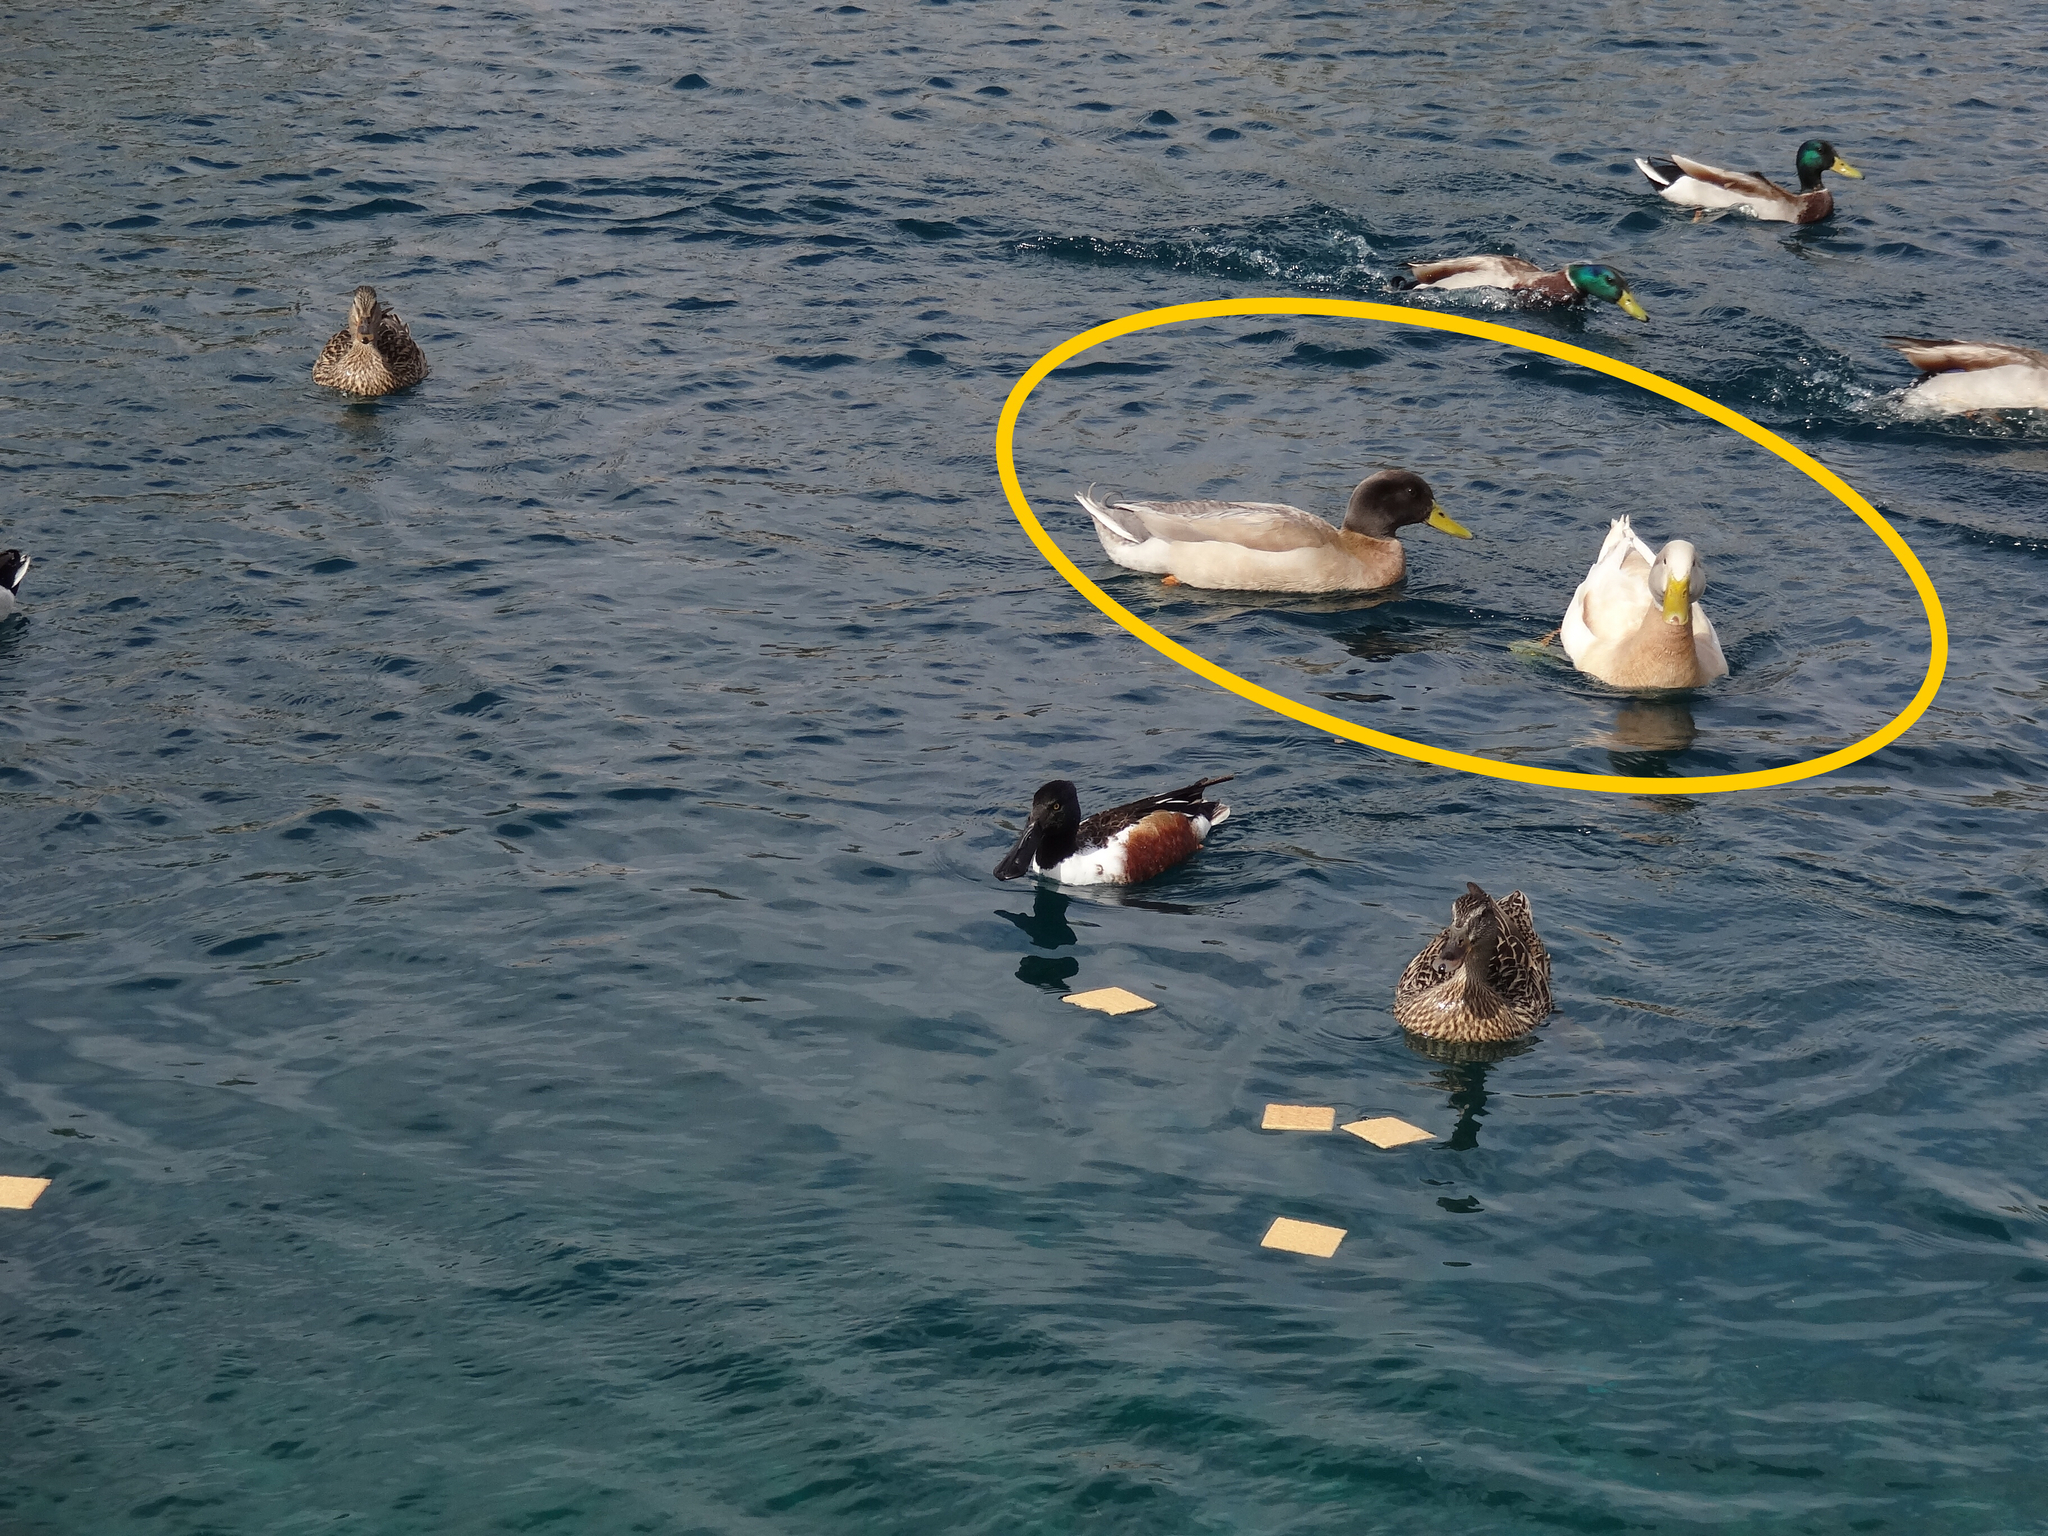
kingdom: Animalia
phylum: Chordata
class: Aves
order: Anseriformes
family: Anatidae
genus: Anas
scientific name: Anas platyrhynchos
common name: Mallard
